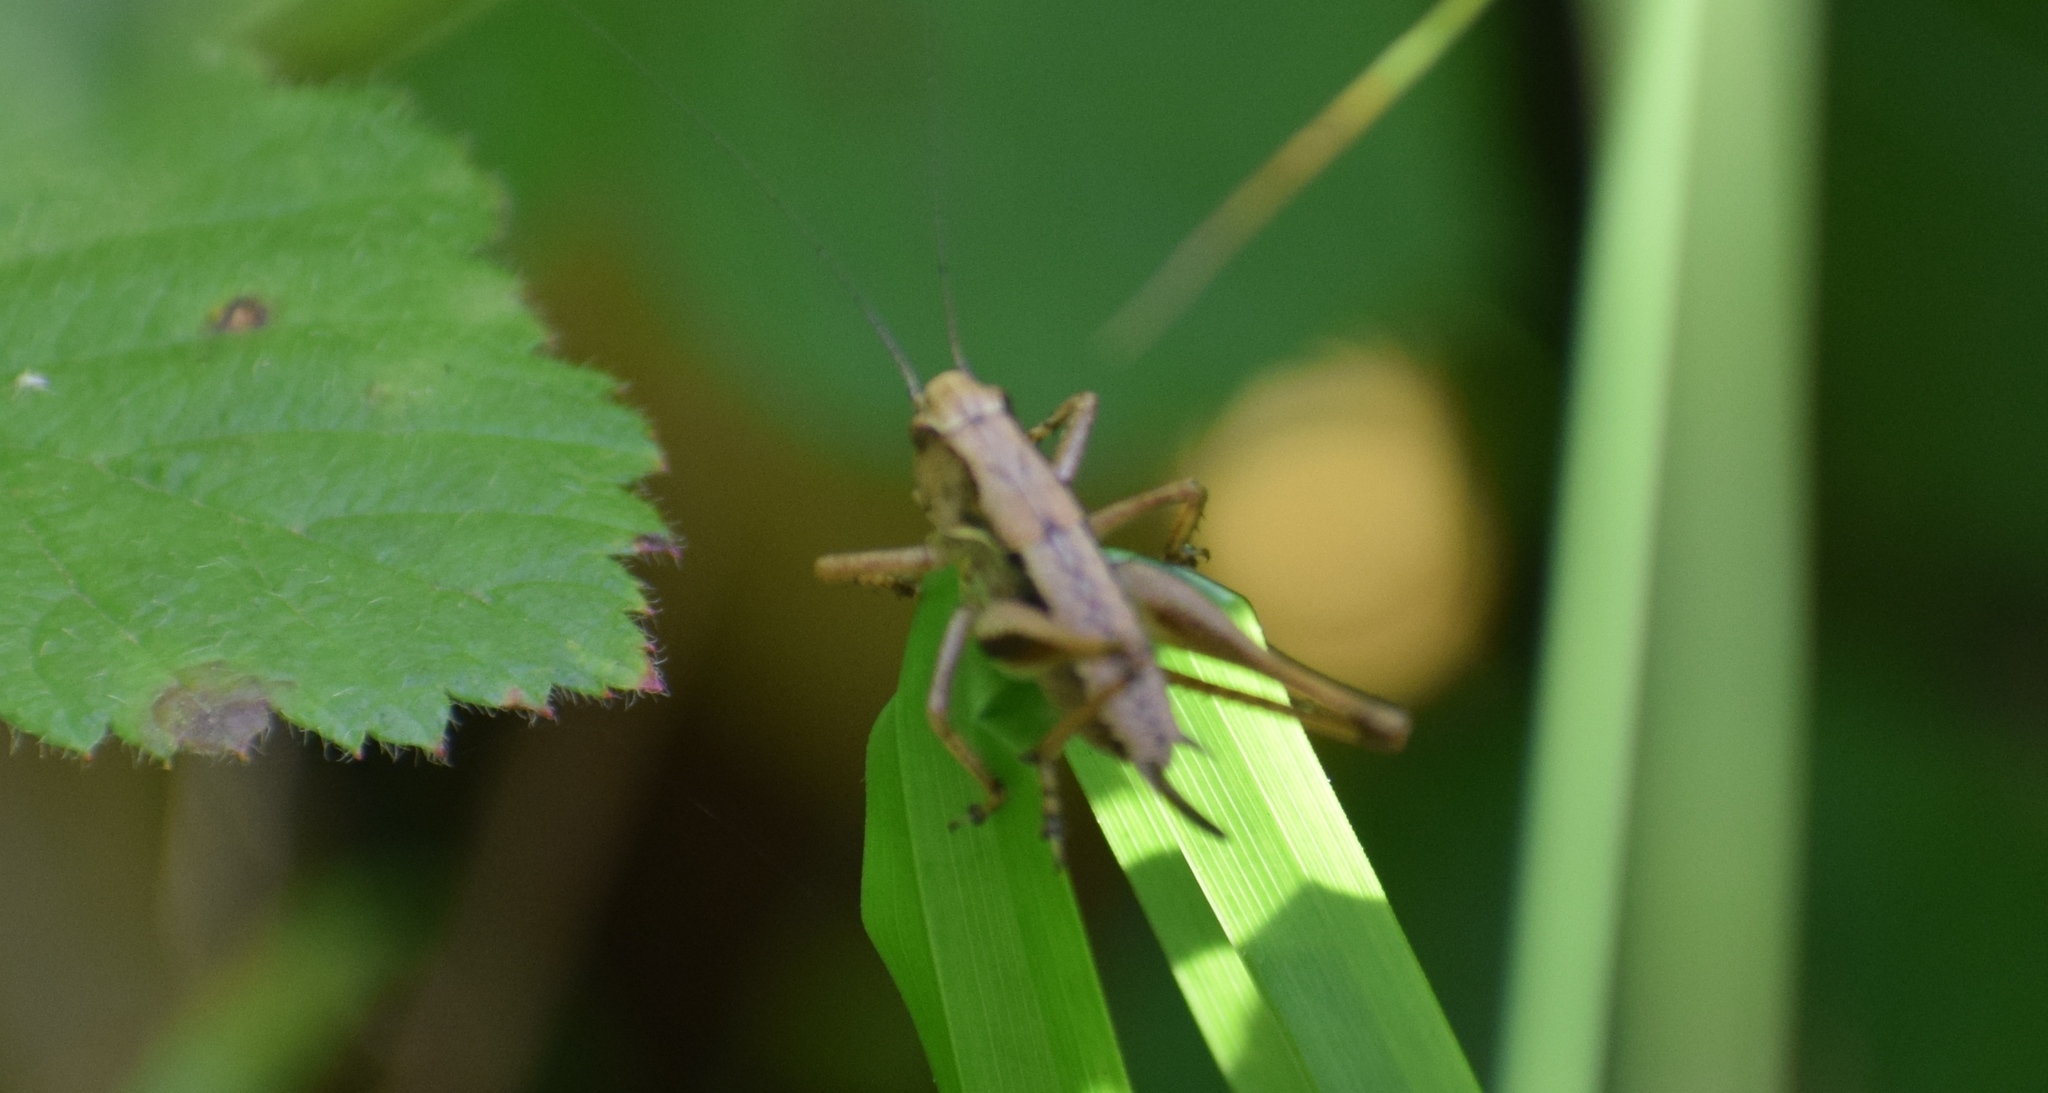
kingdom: Animalia
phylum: Arthropoda
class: Insecta
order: Orthoptera
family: Tettigoniidae
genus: Pholidoptera
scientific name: Pholidoptera griseoaptera
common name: Dark bush-cricket
